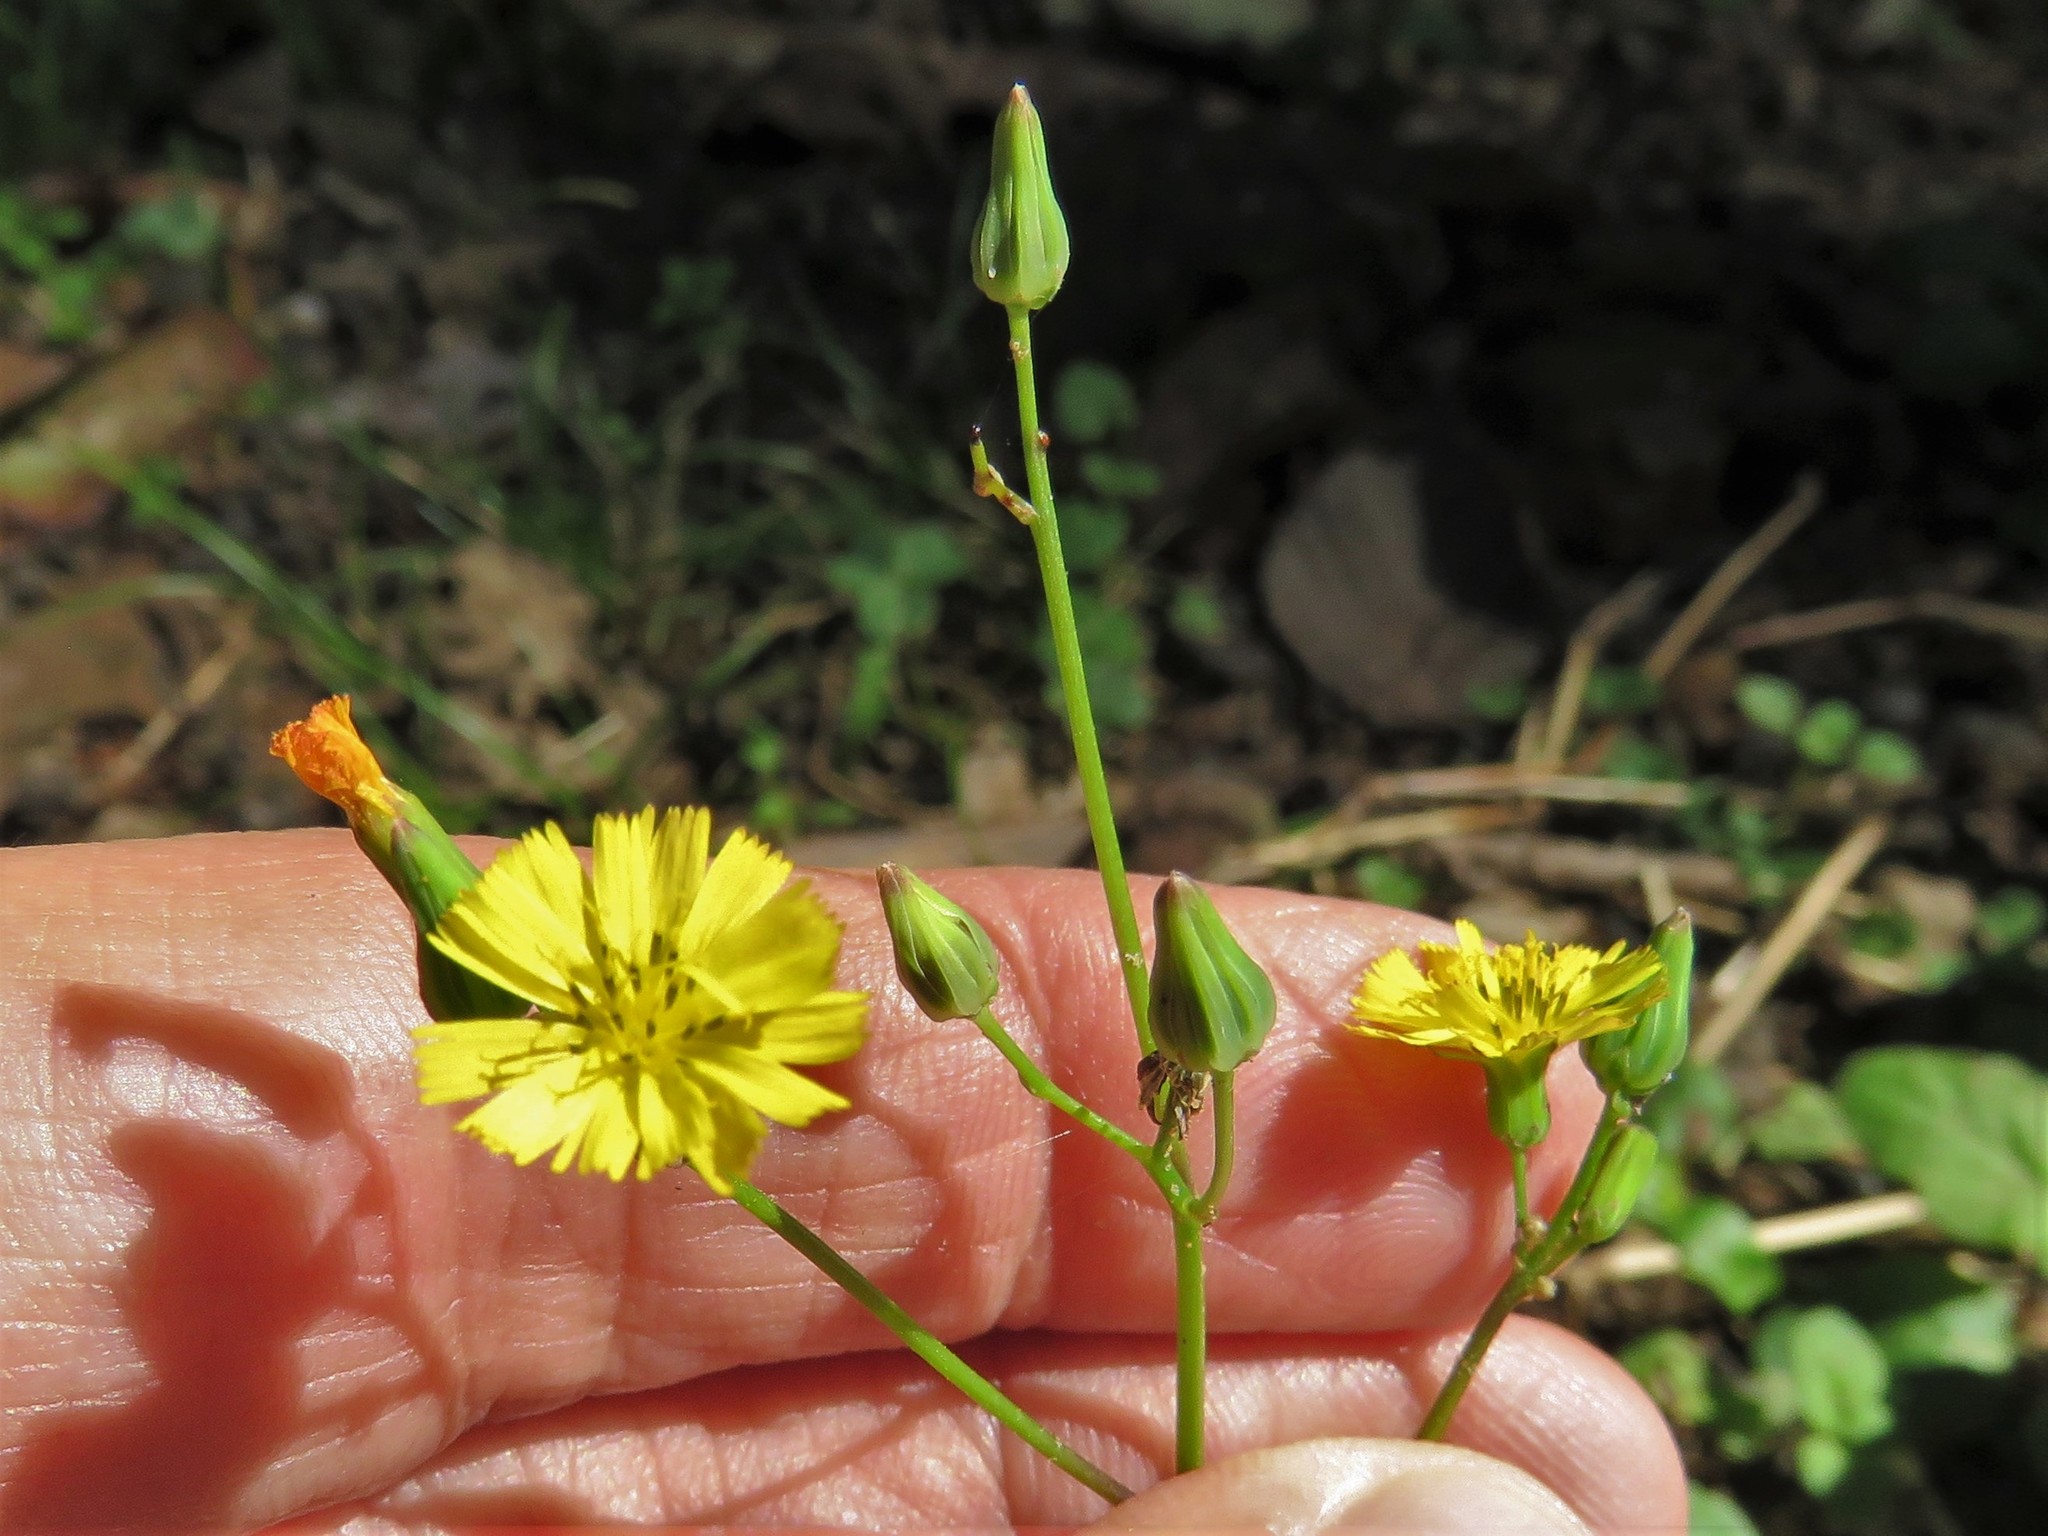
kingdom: Plantae
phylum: Tracheophyta
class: Magnoliopsida
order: Asterales
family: Asteraceae
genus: Youngia
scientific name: Youngia japonica
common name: Oriental false hawksbeard
